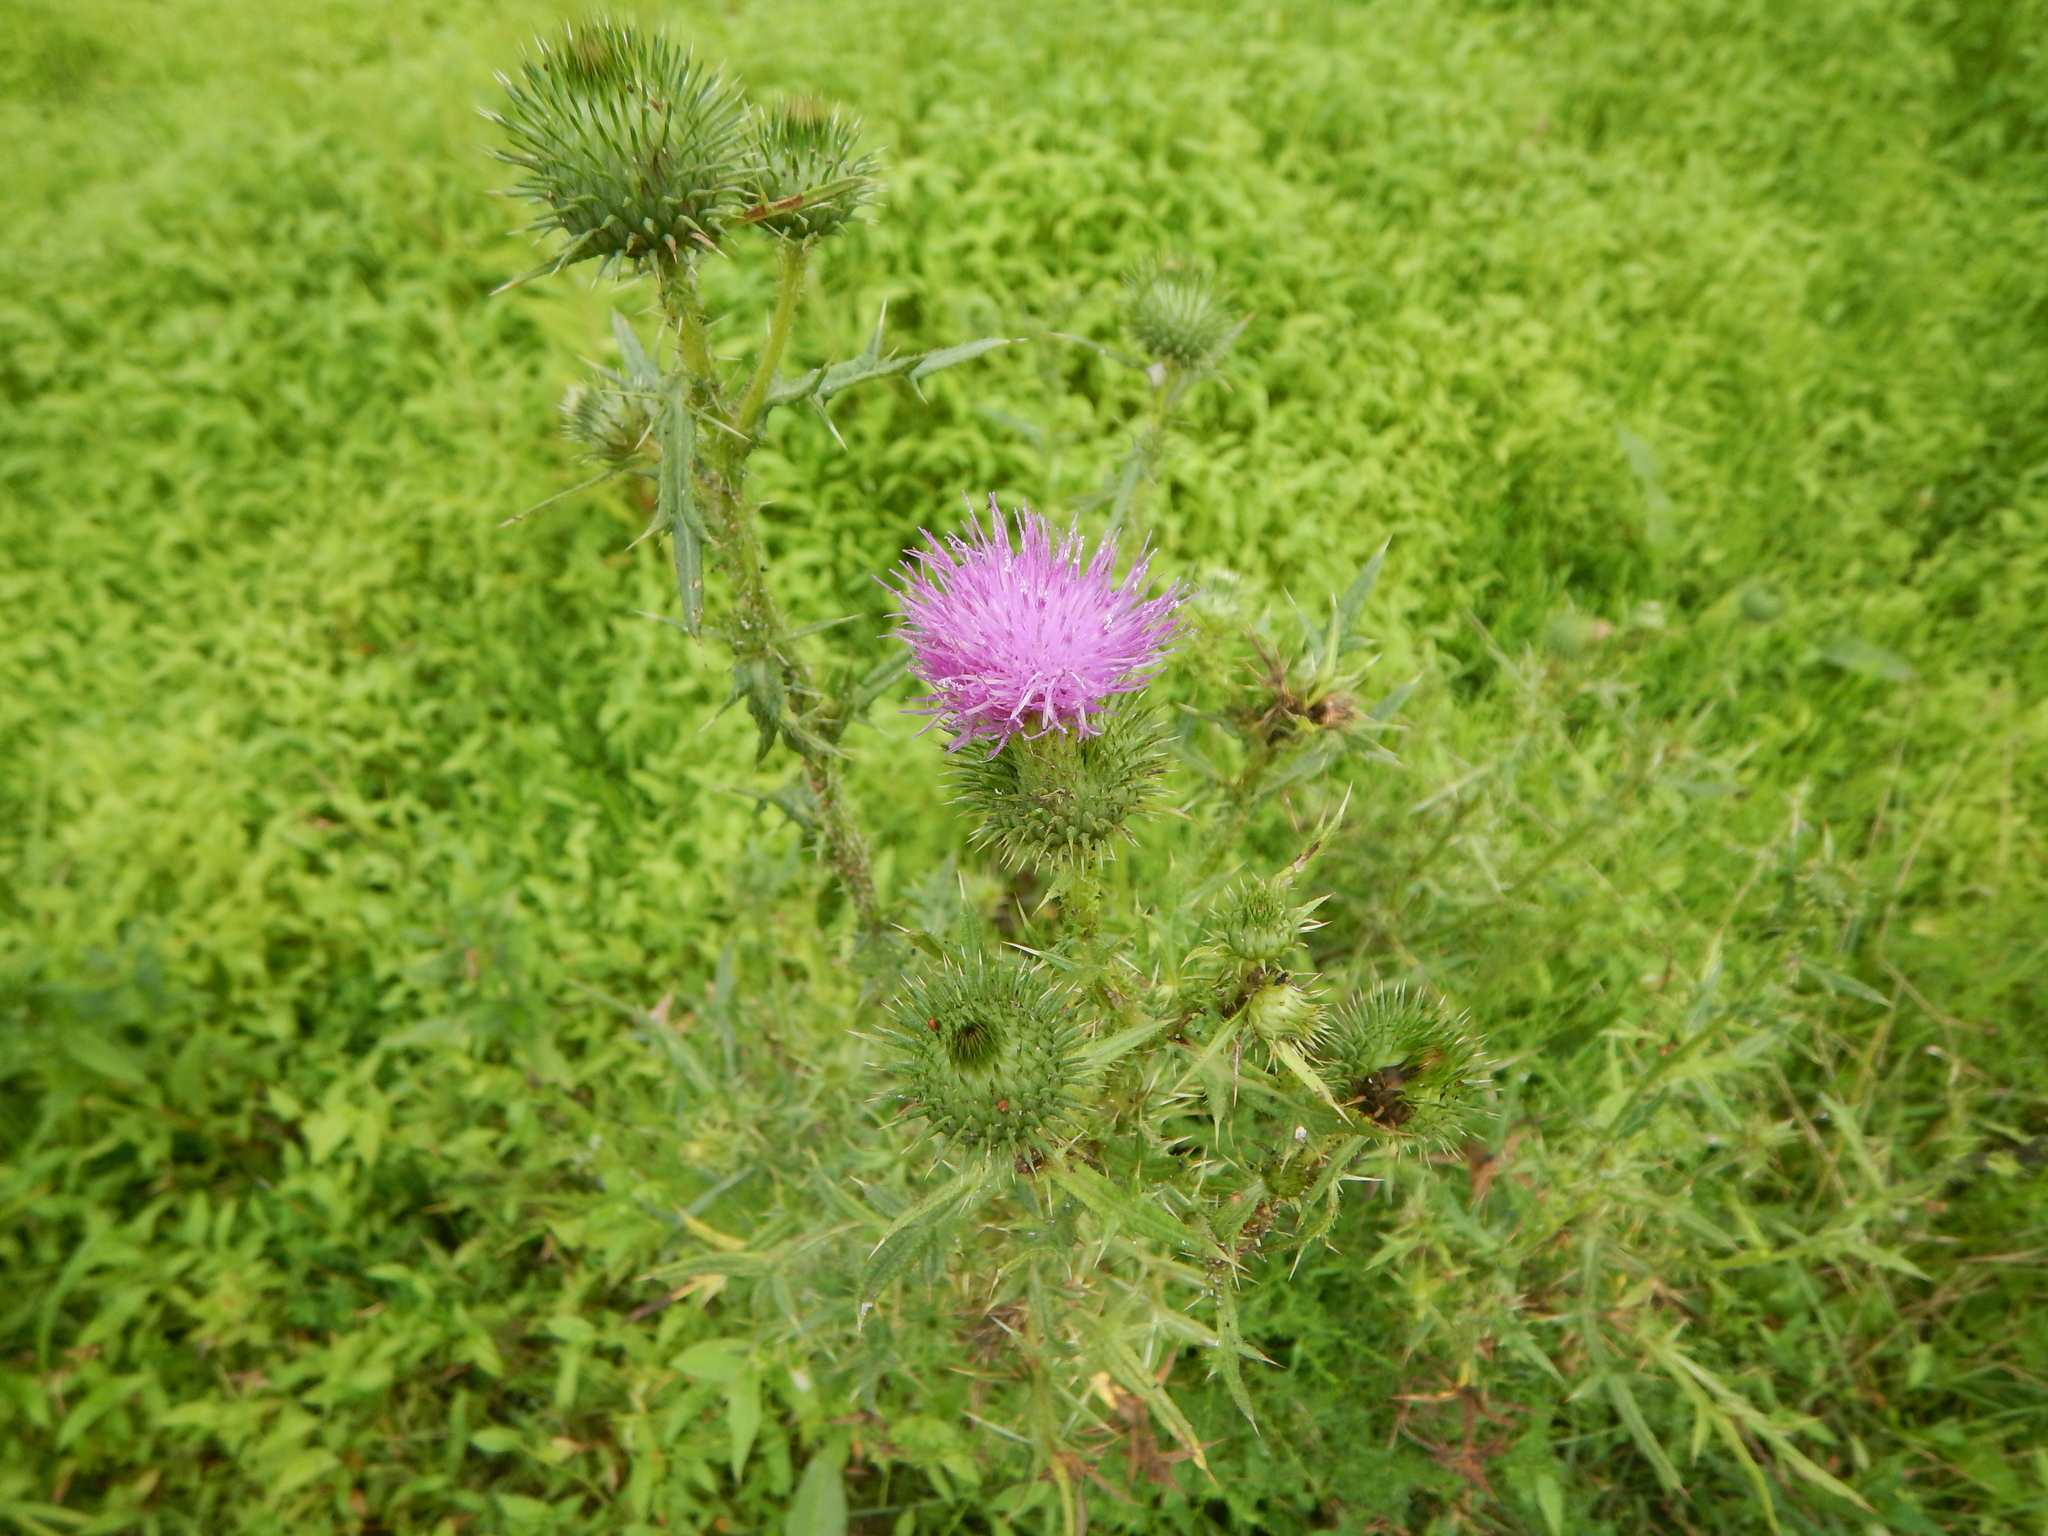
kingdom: Plantae
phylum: Tracheophyta
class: Magnoliopsida
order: Asterales
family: Asteraceae
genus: Cirsium
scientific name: Cirsium vulgare
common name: Bull thistle
